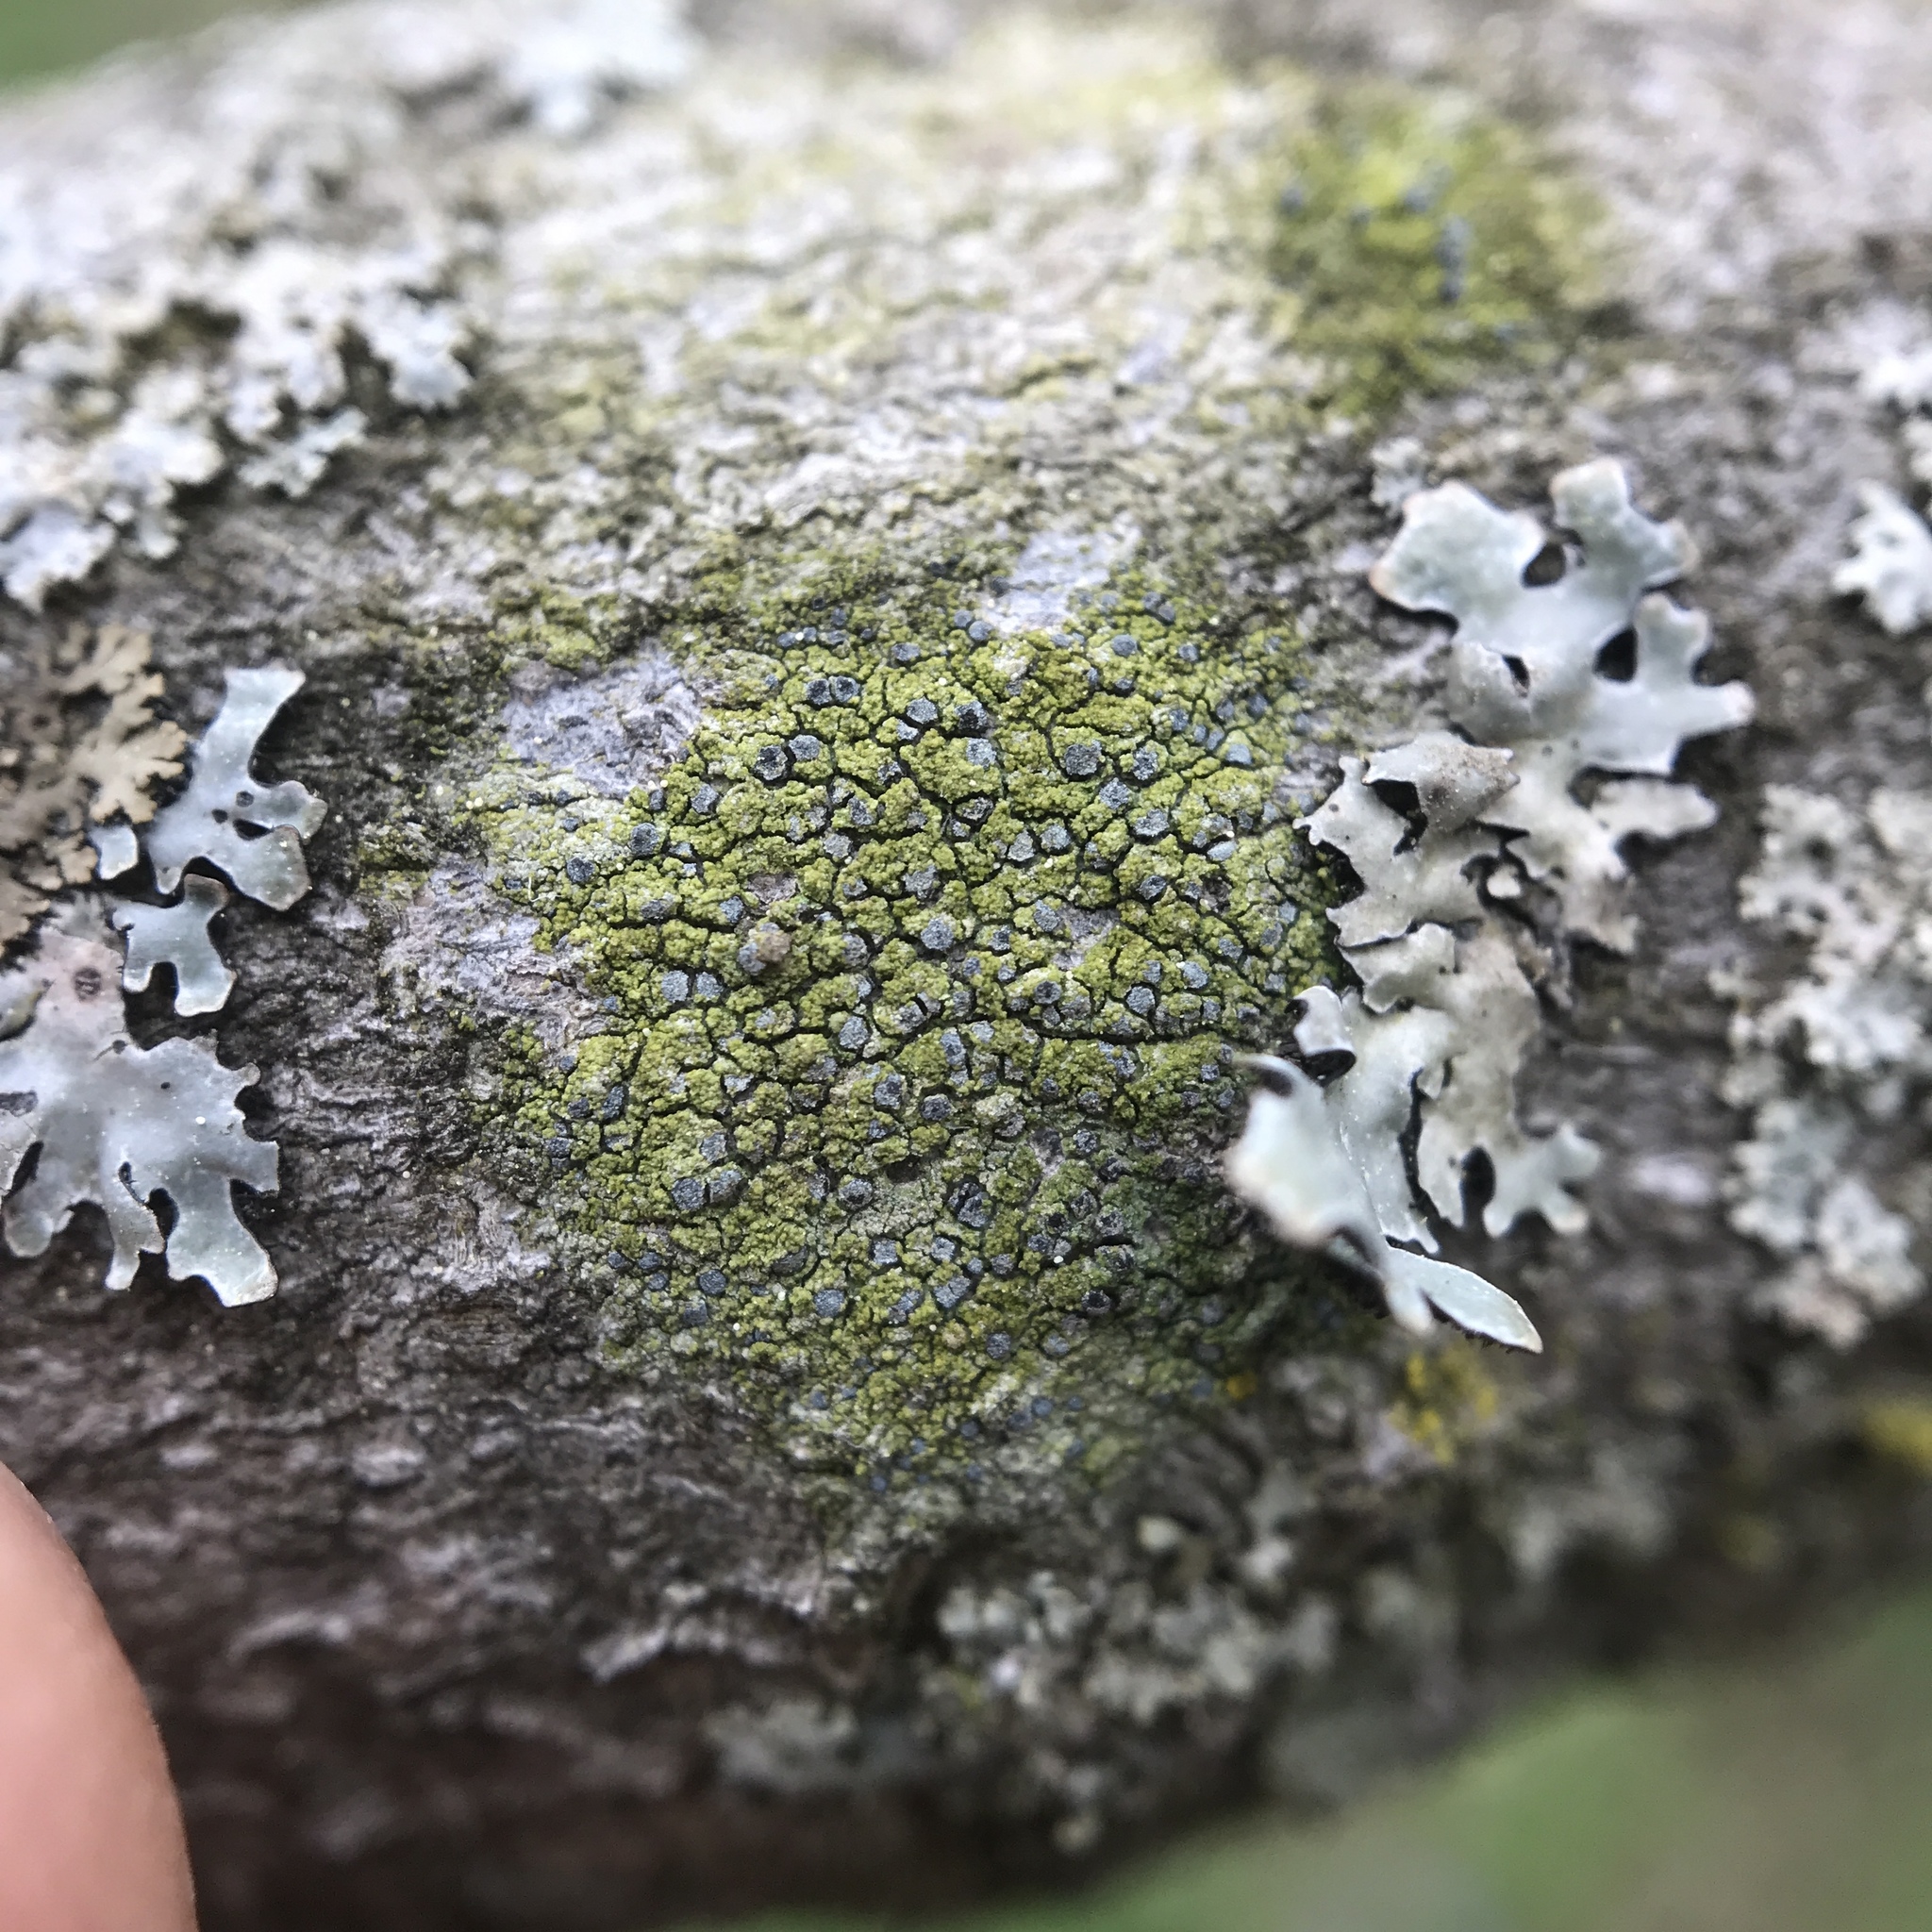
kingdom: Fungi
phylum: Ascomycota
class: Arthoniomycetes
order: Arthoniales
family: Chrysotrichaceae
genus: Chrysothrix
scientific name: Chrysothrix caesia
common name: Frosted comma lichen
